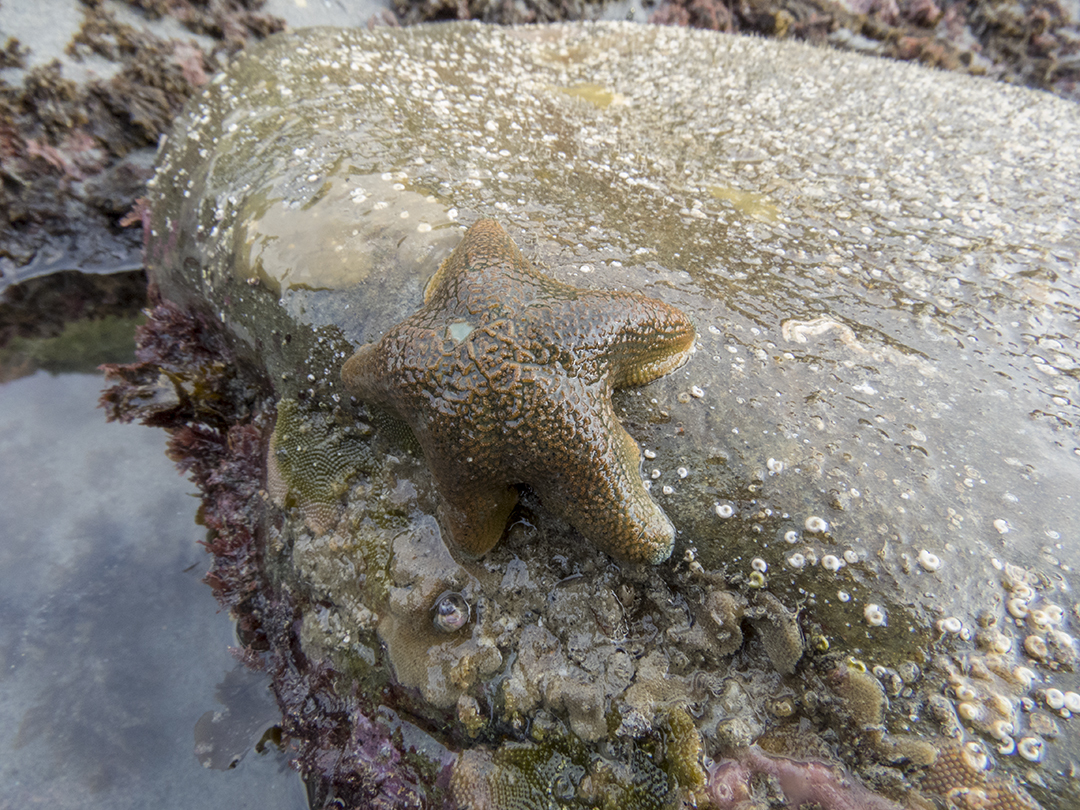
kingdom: Animalia
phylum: Echinodermata
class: Asteroidea
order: Valvatida
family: Asterinidae
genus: Patiriella
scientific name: Patiriella regularis
